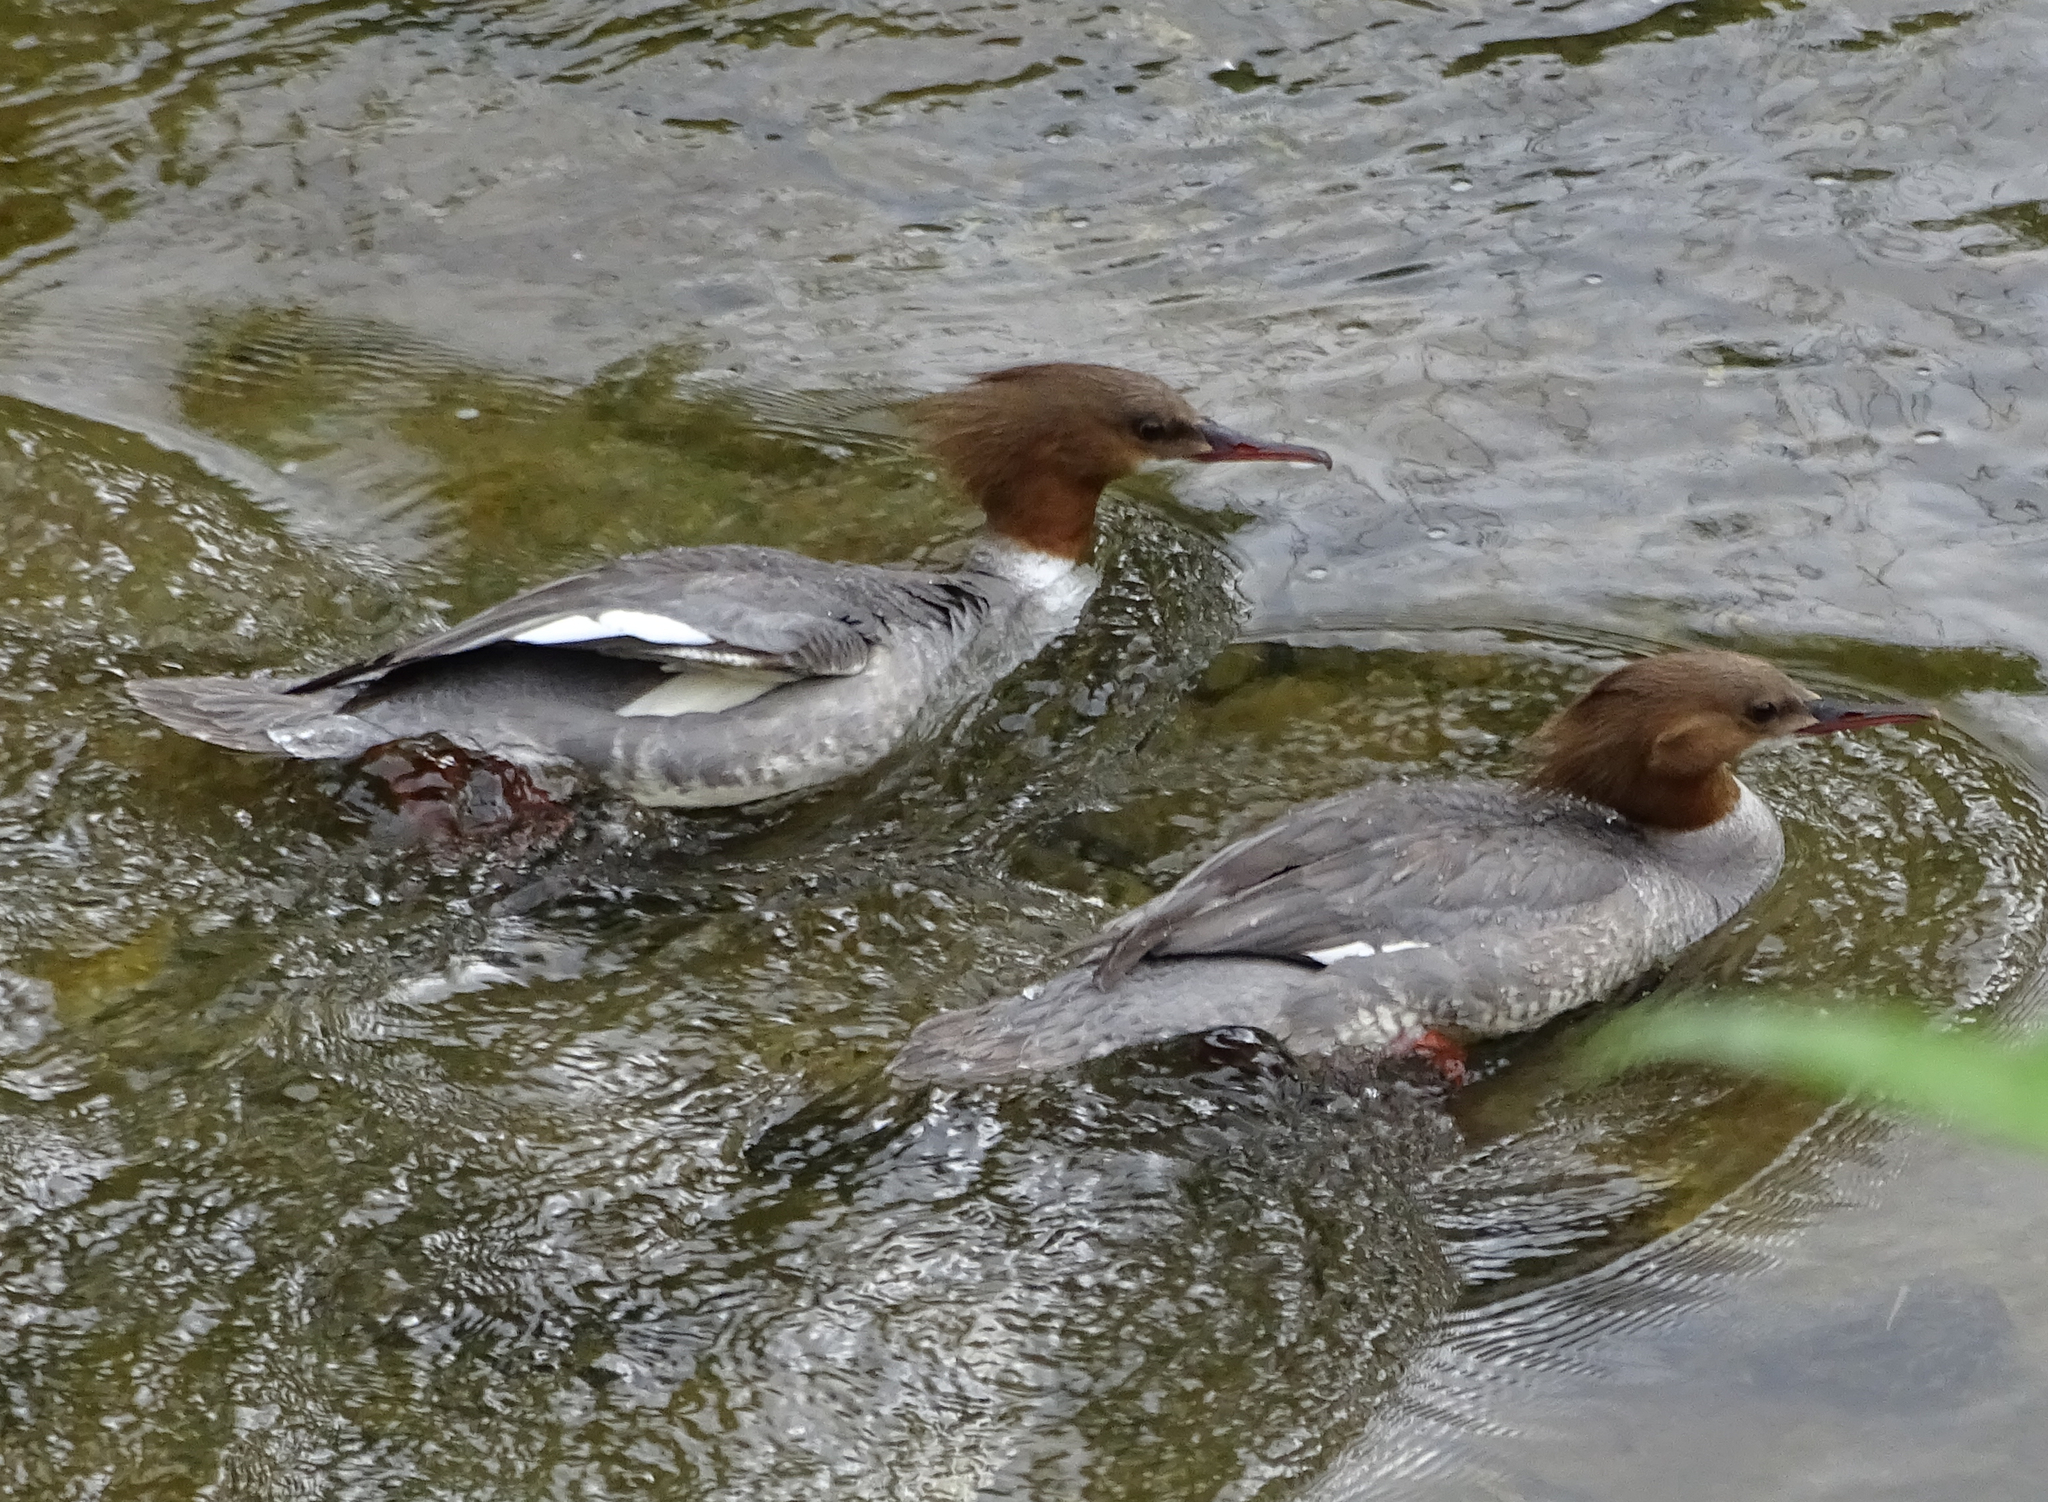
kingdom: Animalia
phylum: Chordata
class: Aves
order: Anseriformes
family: Anatidae
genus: Mergus
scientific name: Mergus merganser
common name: Common merganser
